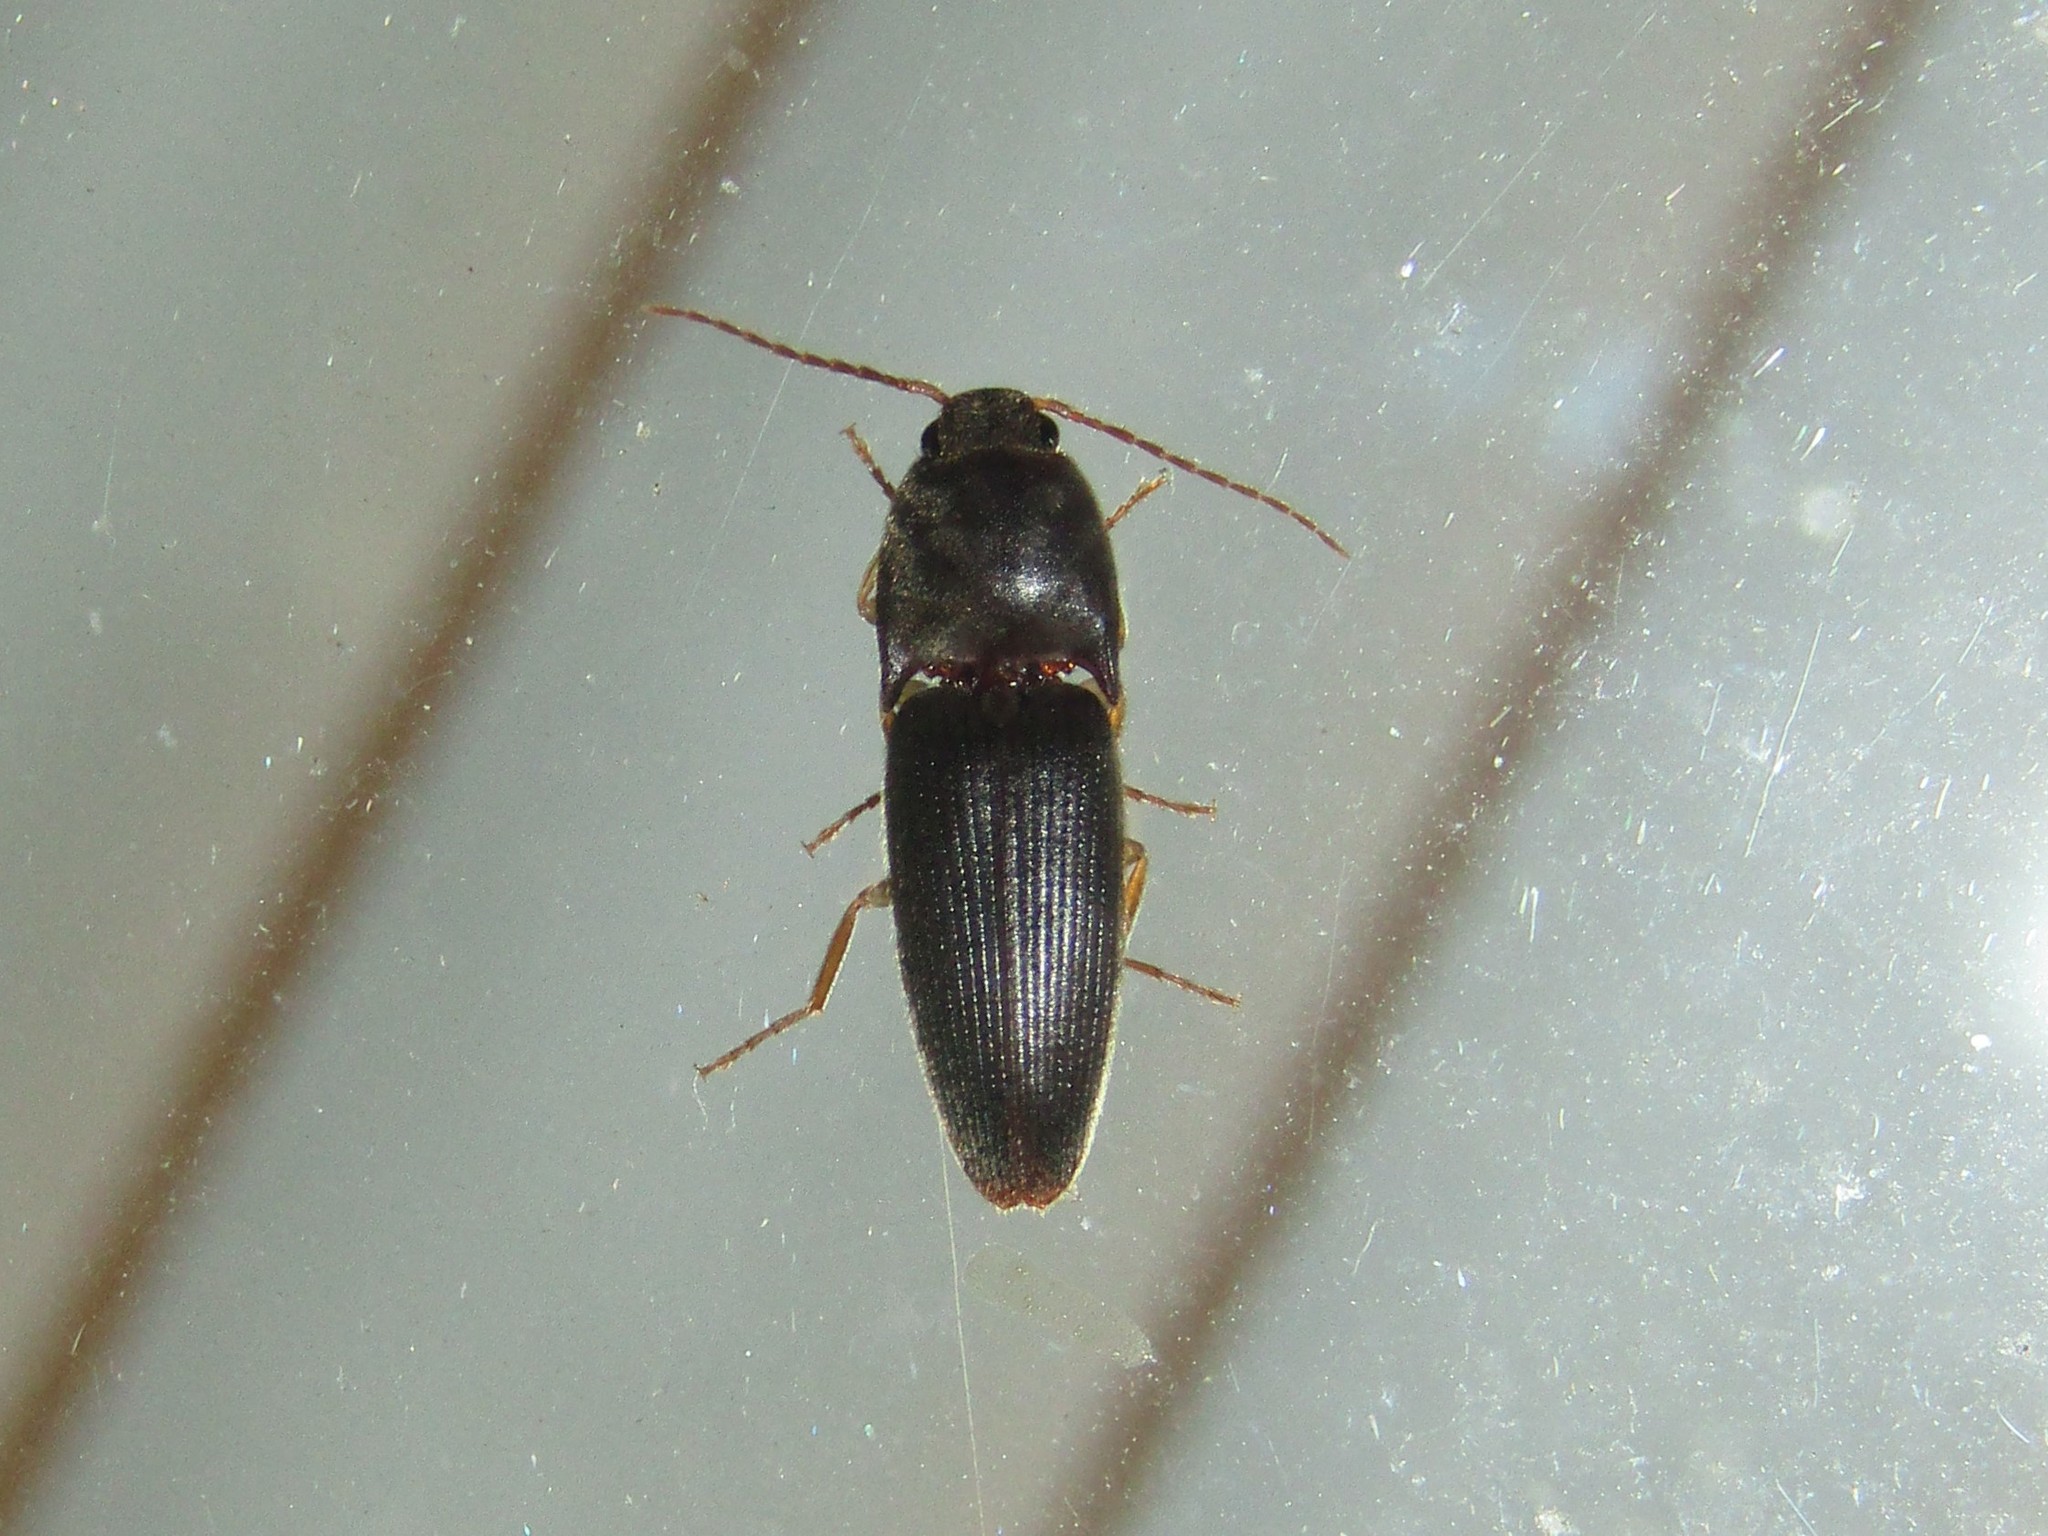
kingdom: Animalia
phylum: Arthropoda
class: Insecta
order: Coleoptera
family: Elateridae
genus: Conoderus
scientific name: Conoderus exsul
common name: Click beetle
